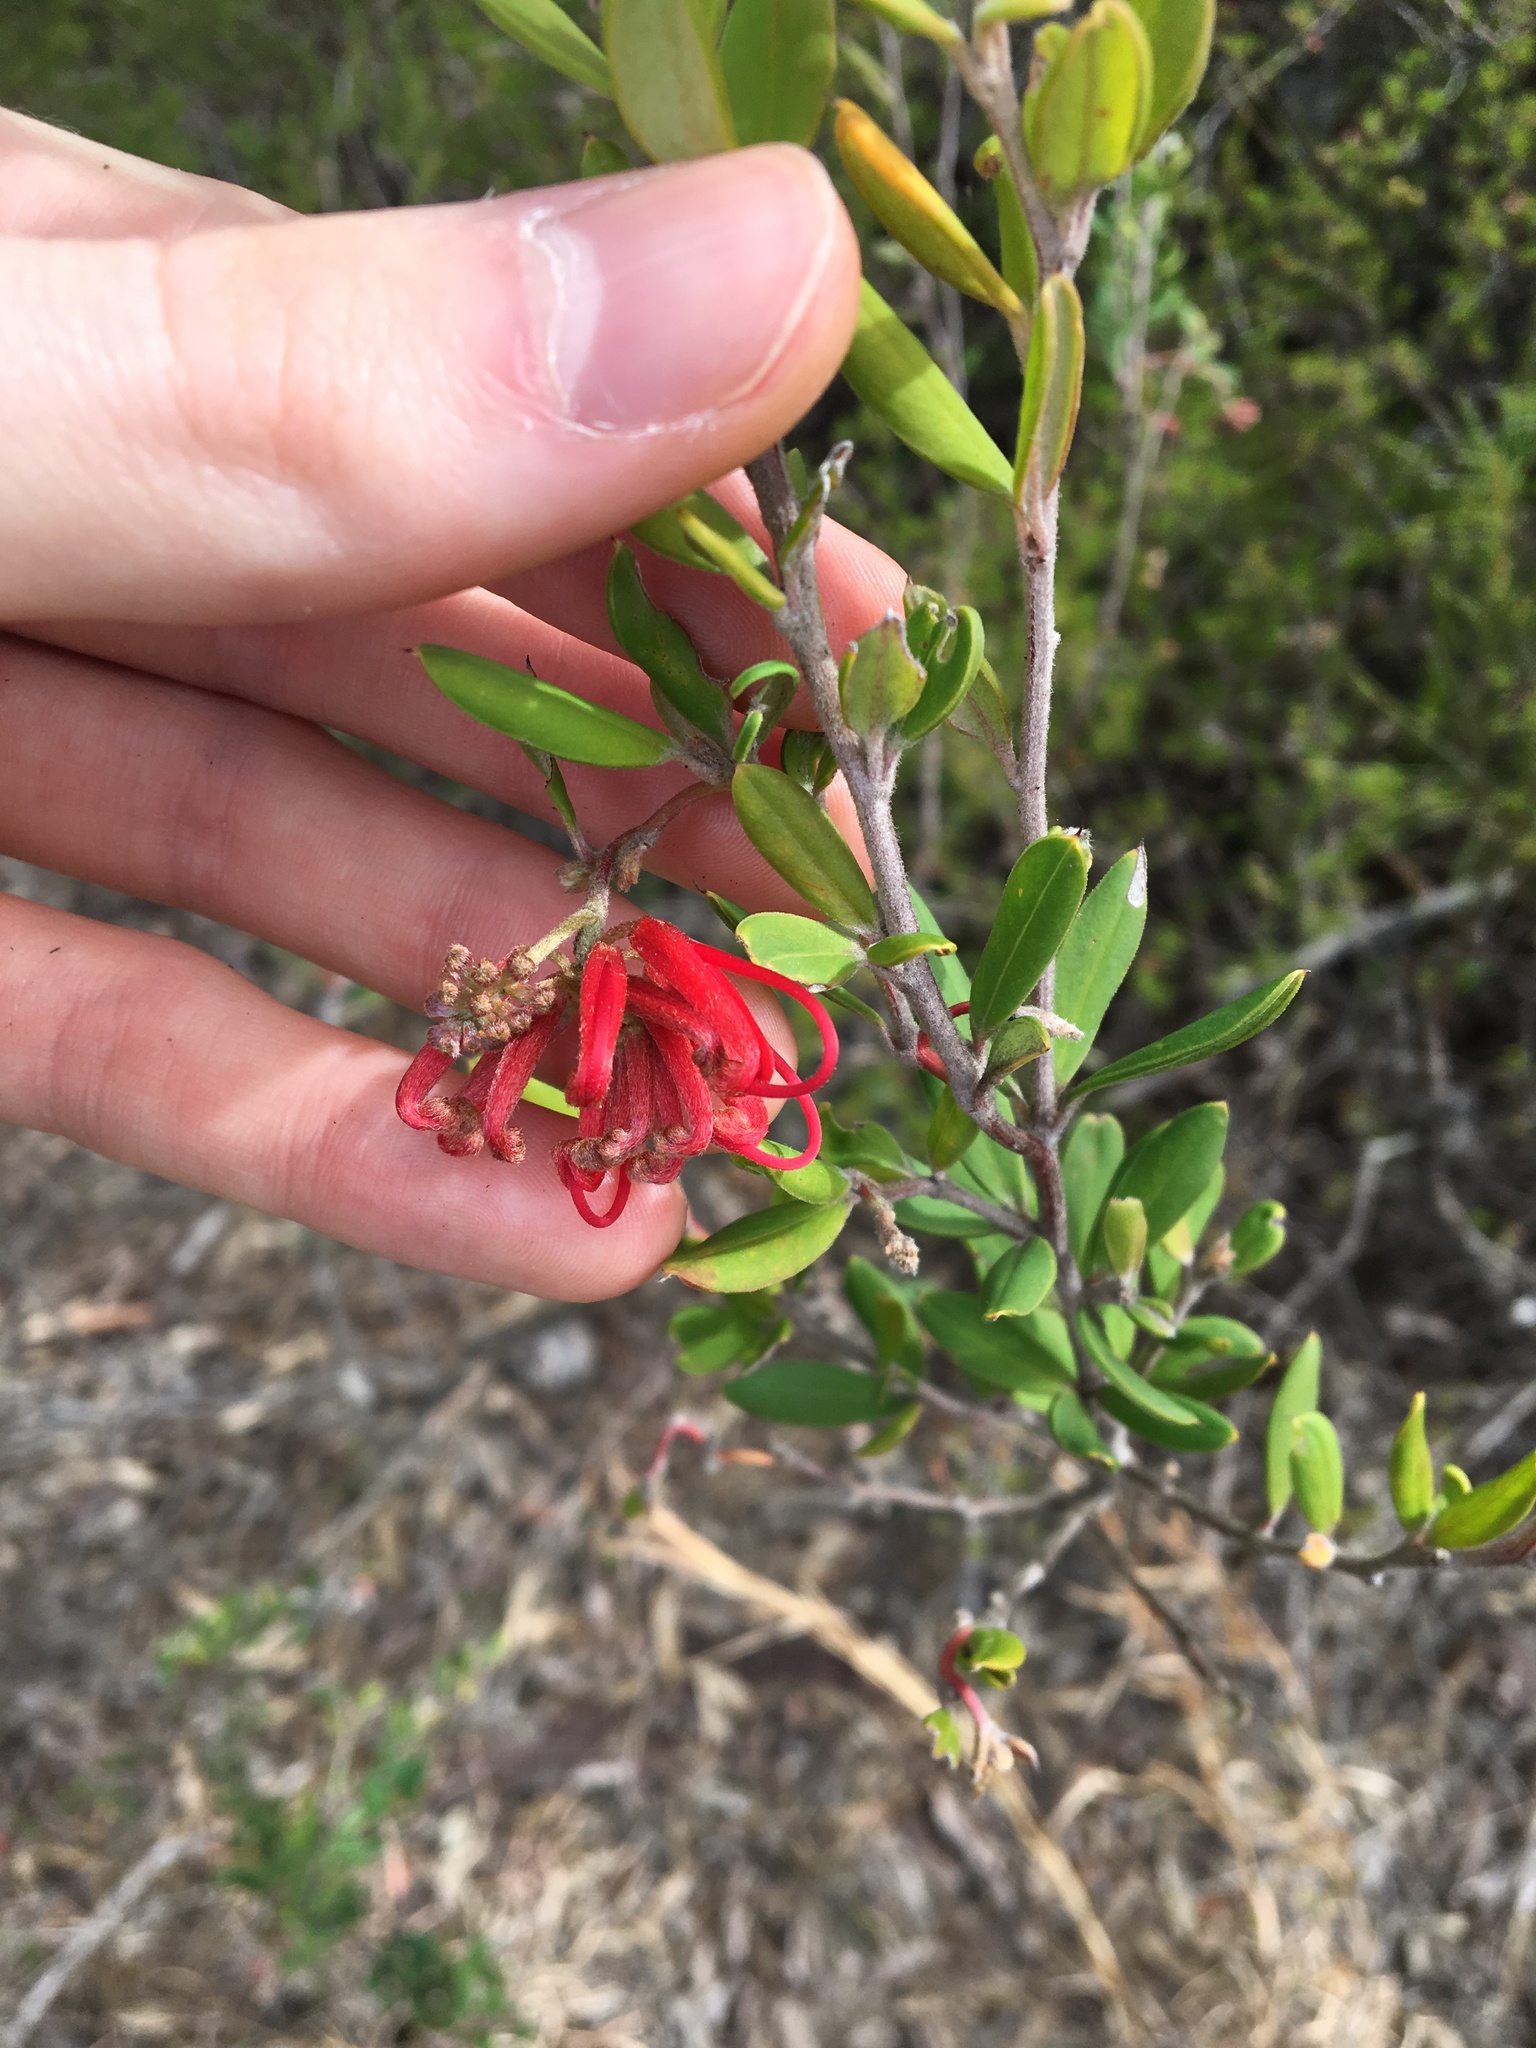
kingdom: Plantae
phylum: Tracheophyta
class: Magnoliopsida
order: Proteales
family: Proteaceae
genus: Grevillea
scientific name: Grevillea speciosa
